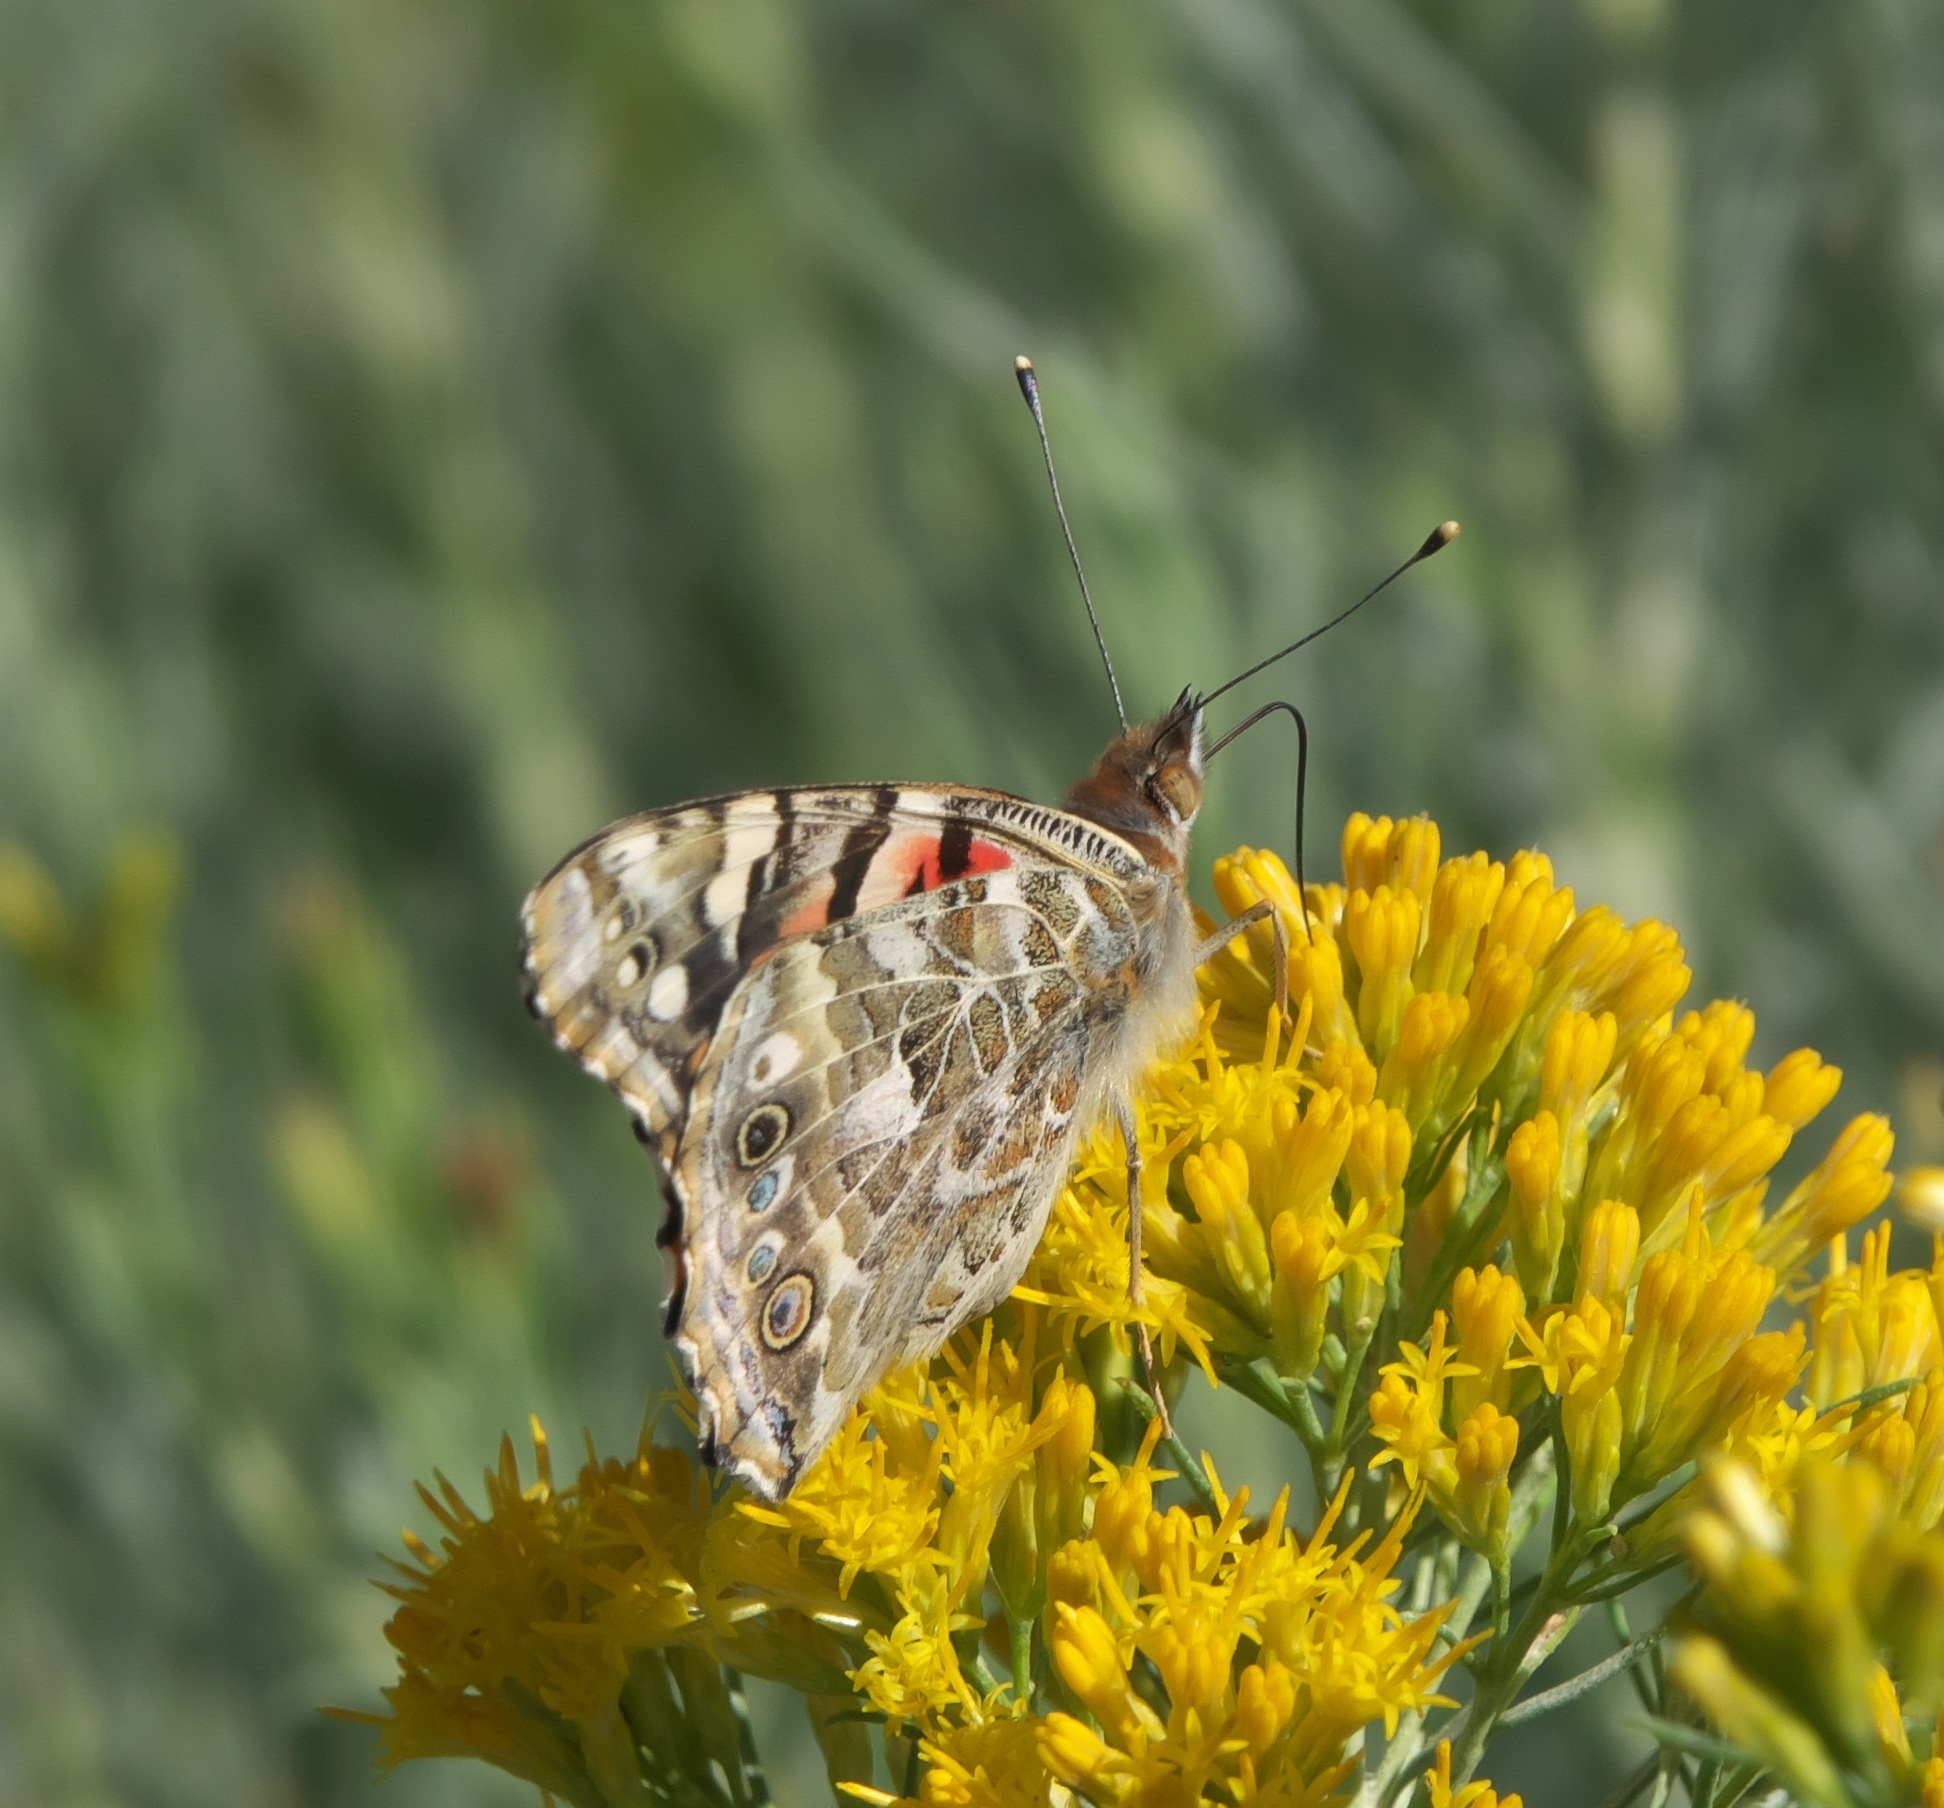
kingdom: Animalia
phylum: Arthropoda
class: Insecta
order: Lepidoptera
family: Nymphalidae
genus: Vanessa
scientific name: Vanessa cardui
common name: Painted lady
